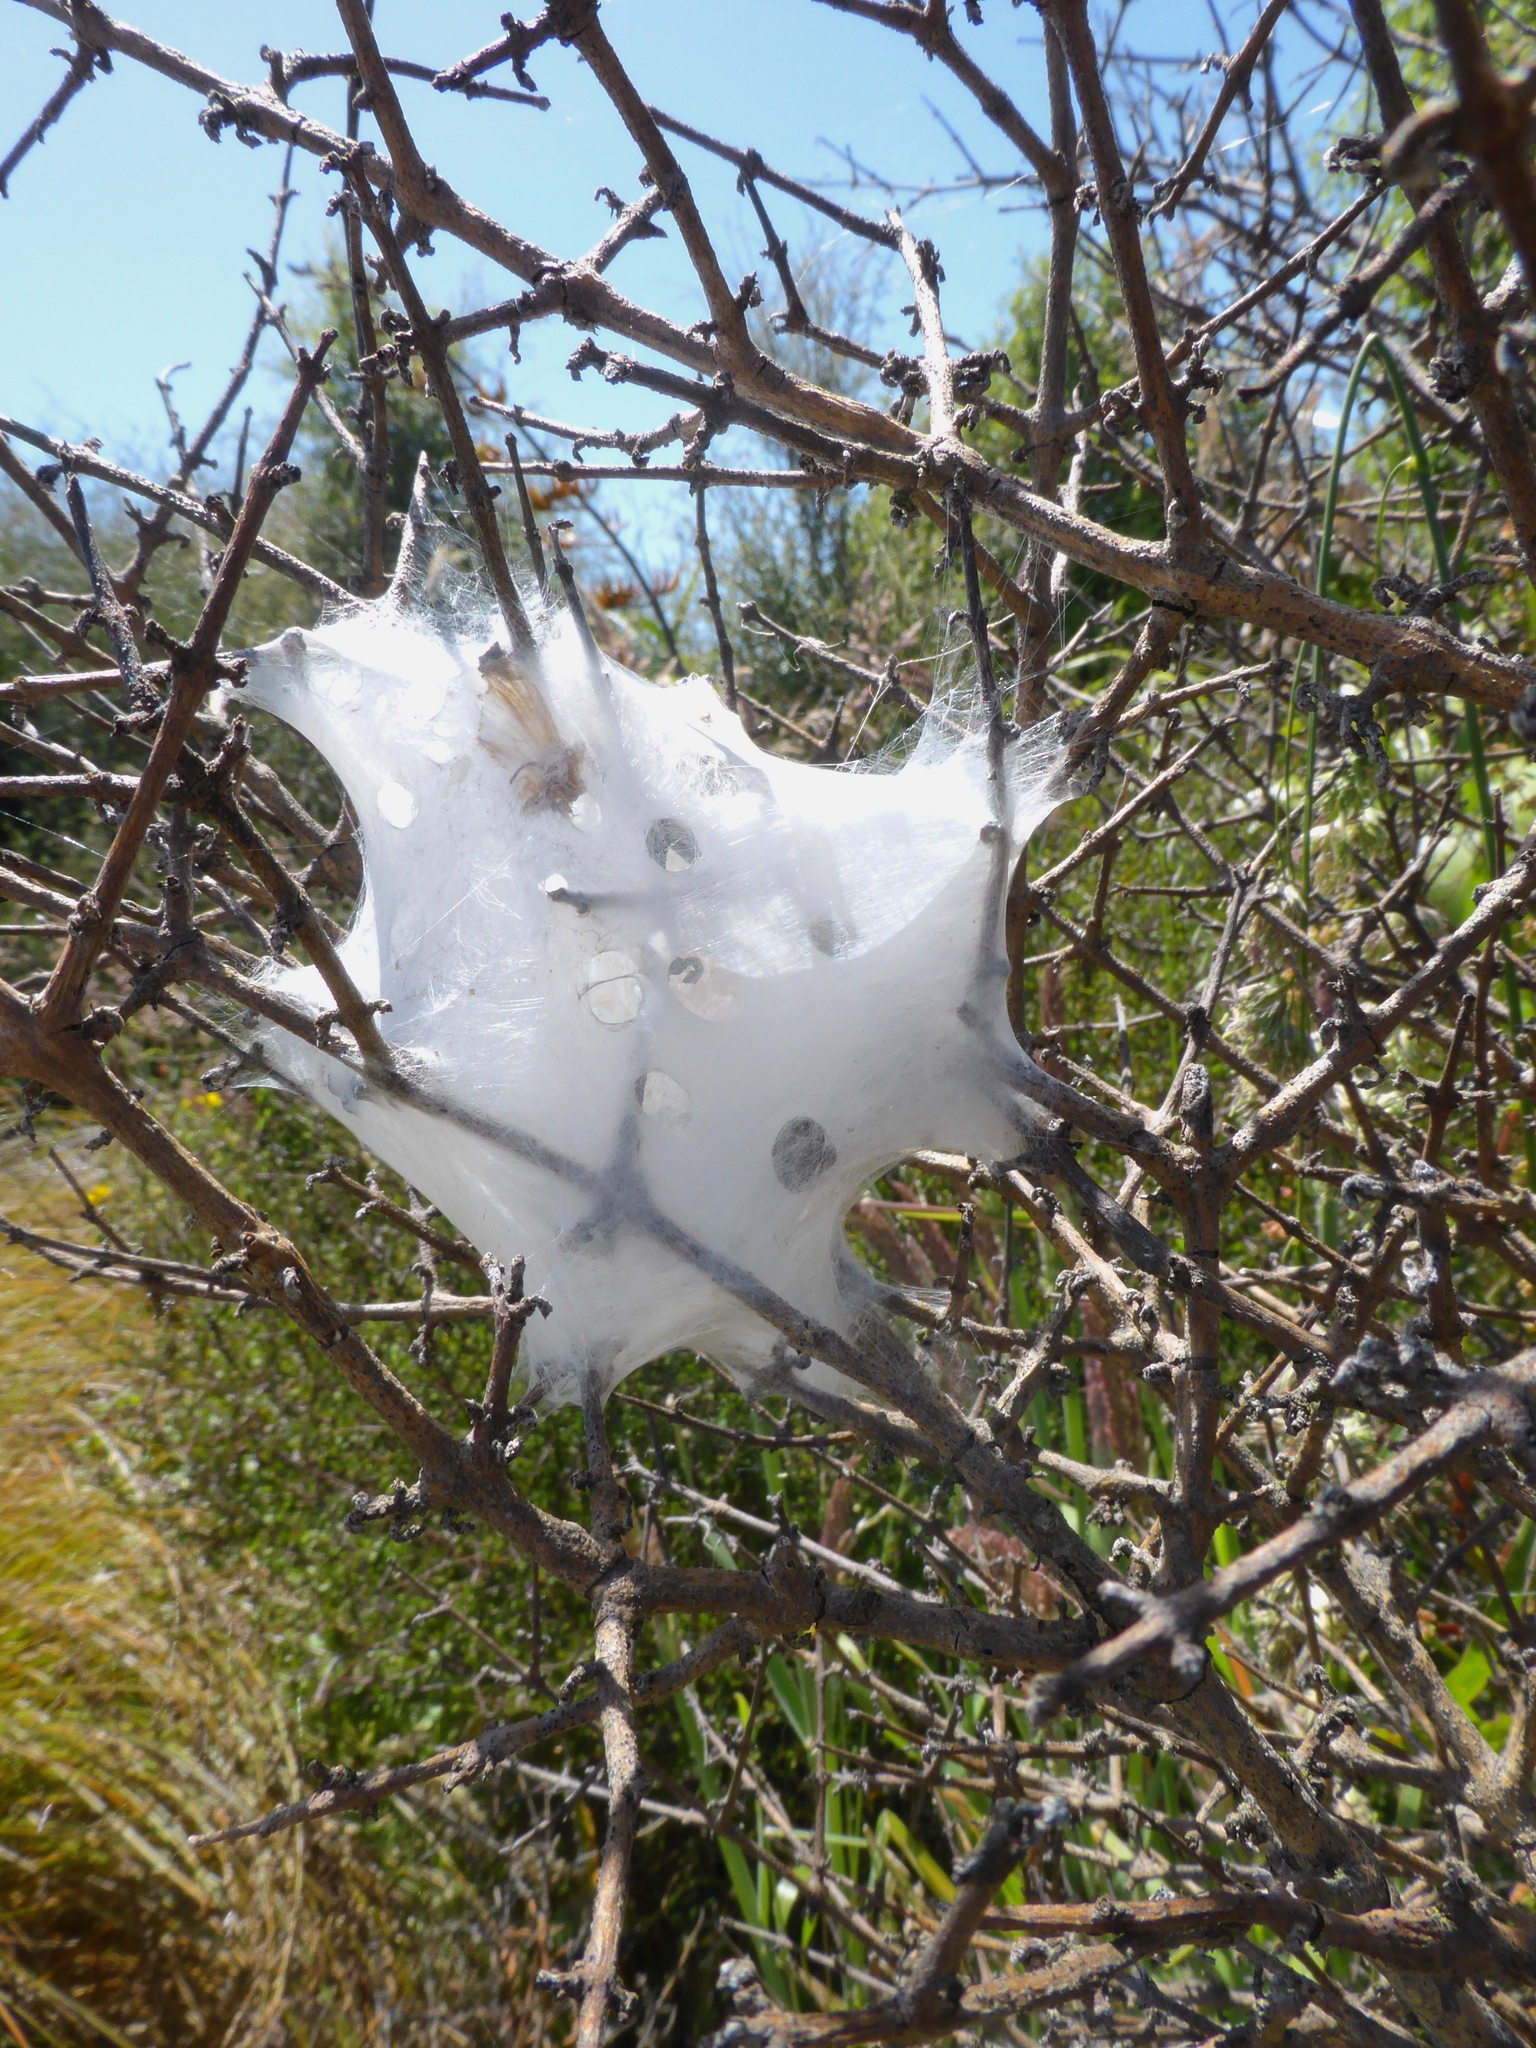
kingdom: Animalia
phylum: Arthropoda
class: Arachnida
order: Araneae
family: Pisauridae
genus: Dolomedes
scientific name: Dolomedes minor
